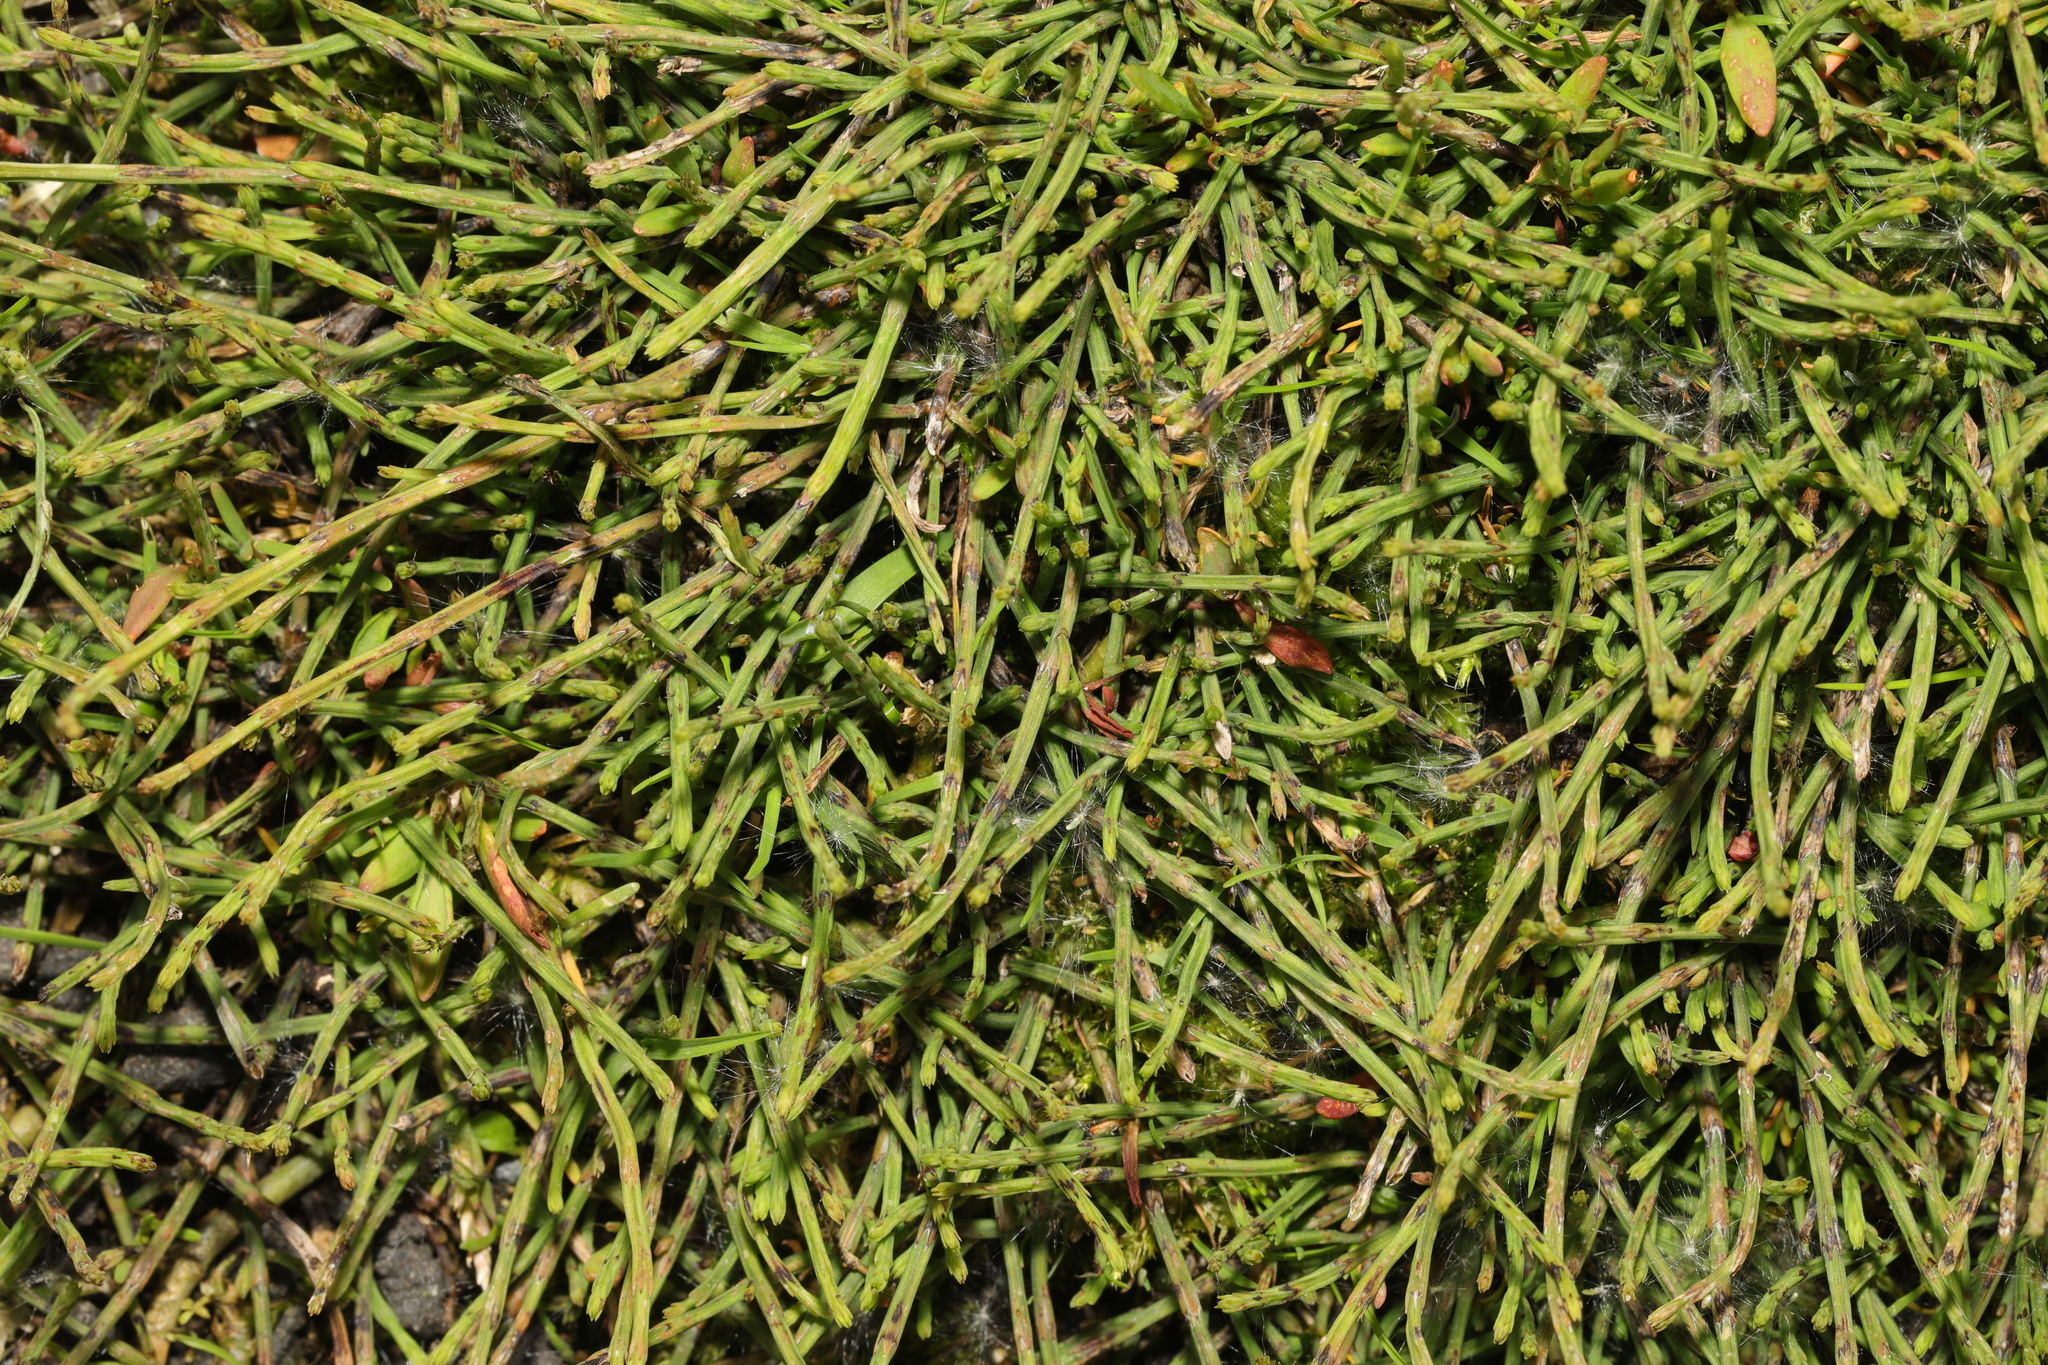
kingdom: Plantae
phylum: Tracheophyta
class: Polypodiopsida
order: Equisetales
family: Equisetaceae
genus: Equisetum
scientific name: Equisetum arvense
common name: Field horsetail
